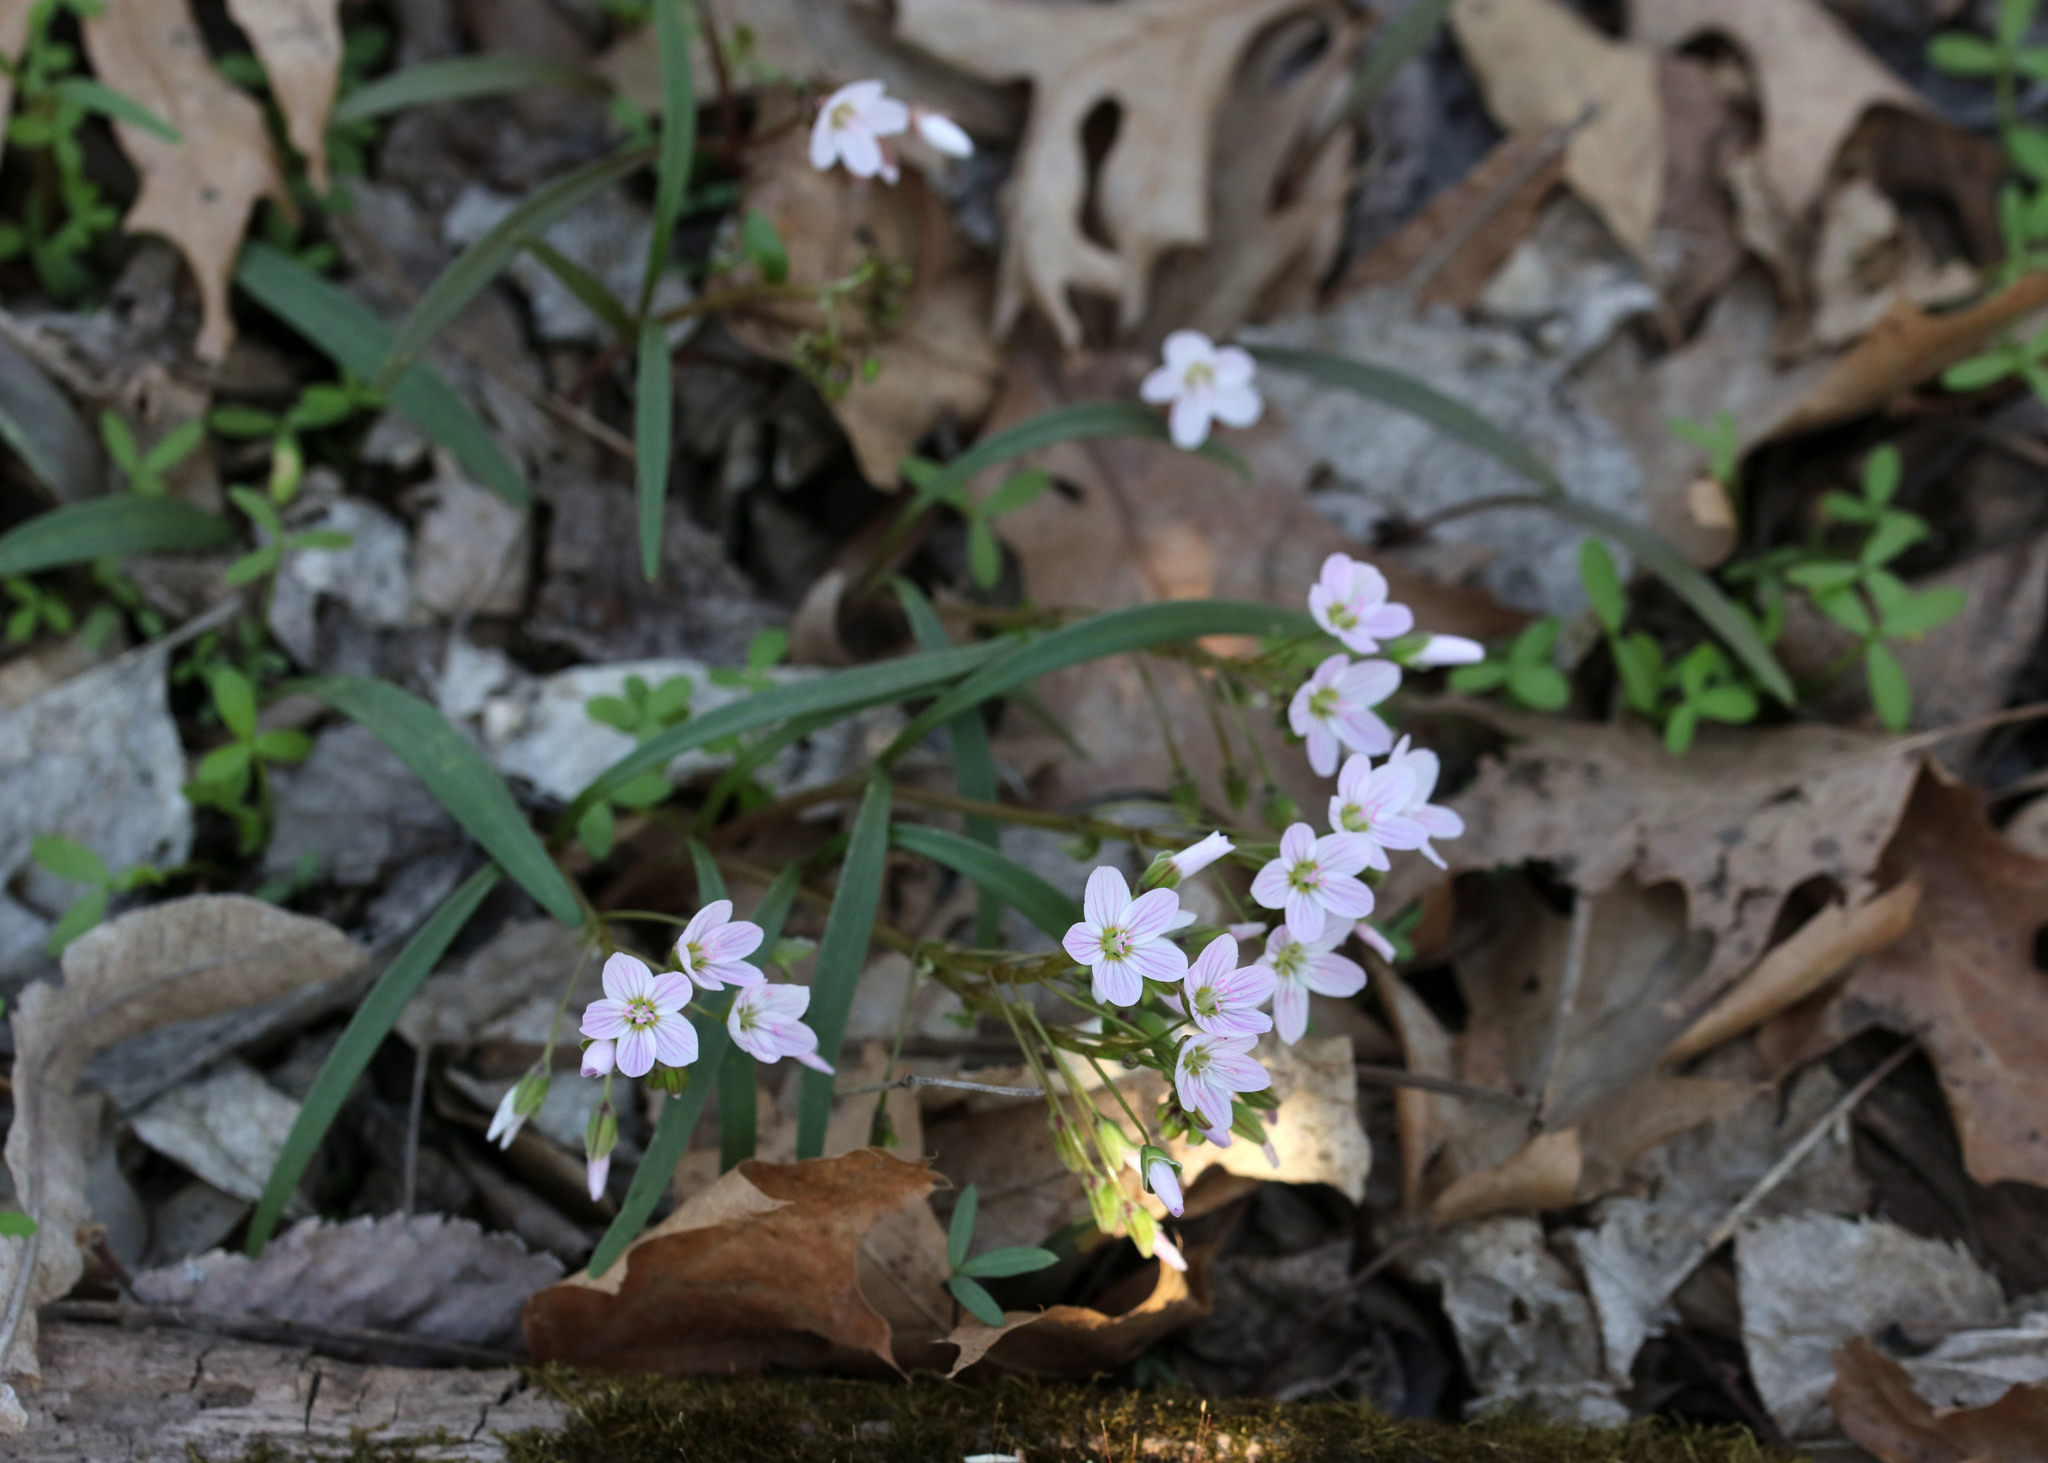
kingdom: Plantae
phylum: Tracheophyta
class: Magnoliopsida
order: Caryophyllales
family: Montiaceae
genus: Claytonia
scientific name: Claytonia virginica
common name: Virginia springbeauty
